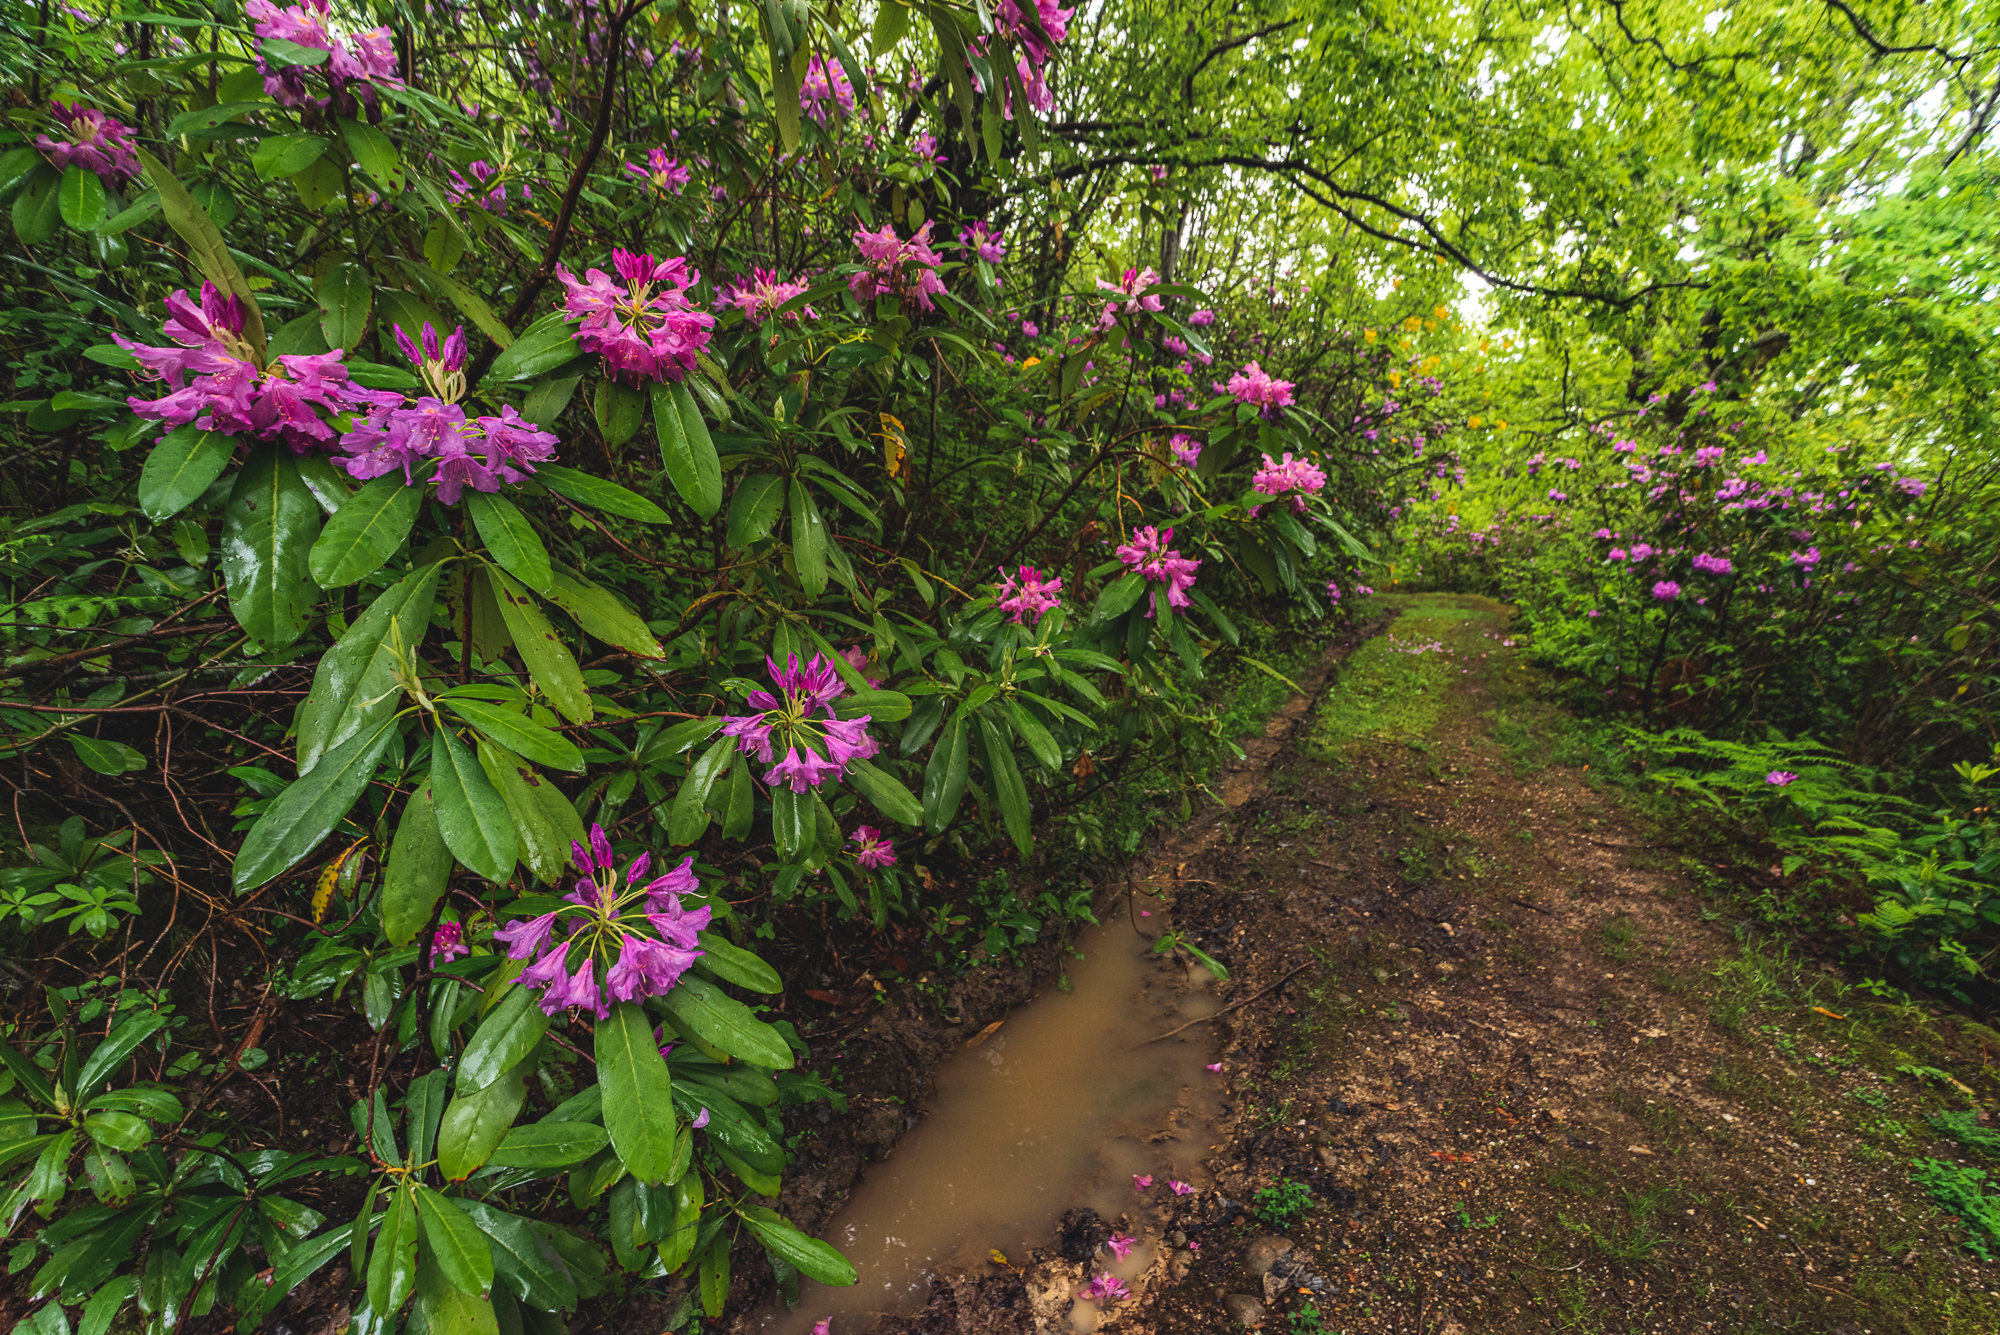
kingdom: Plantae
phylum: Tracheophyta
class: Magnoliopsida
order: Ericales
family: Ericaceae
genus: Rhododendron
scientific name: Rhododendron ponticum
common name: Rhododendron
